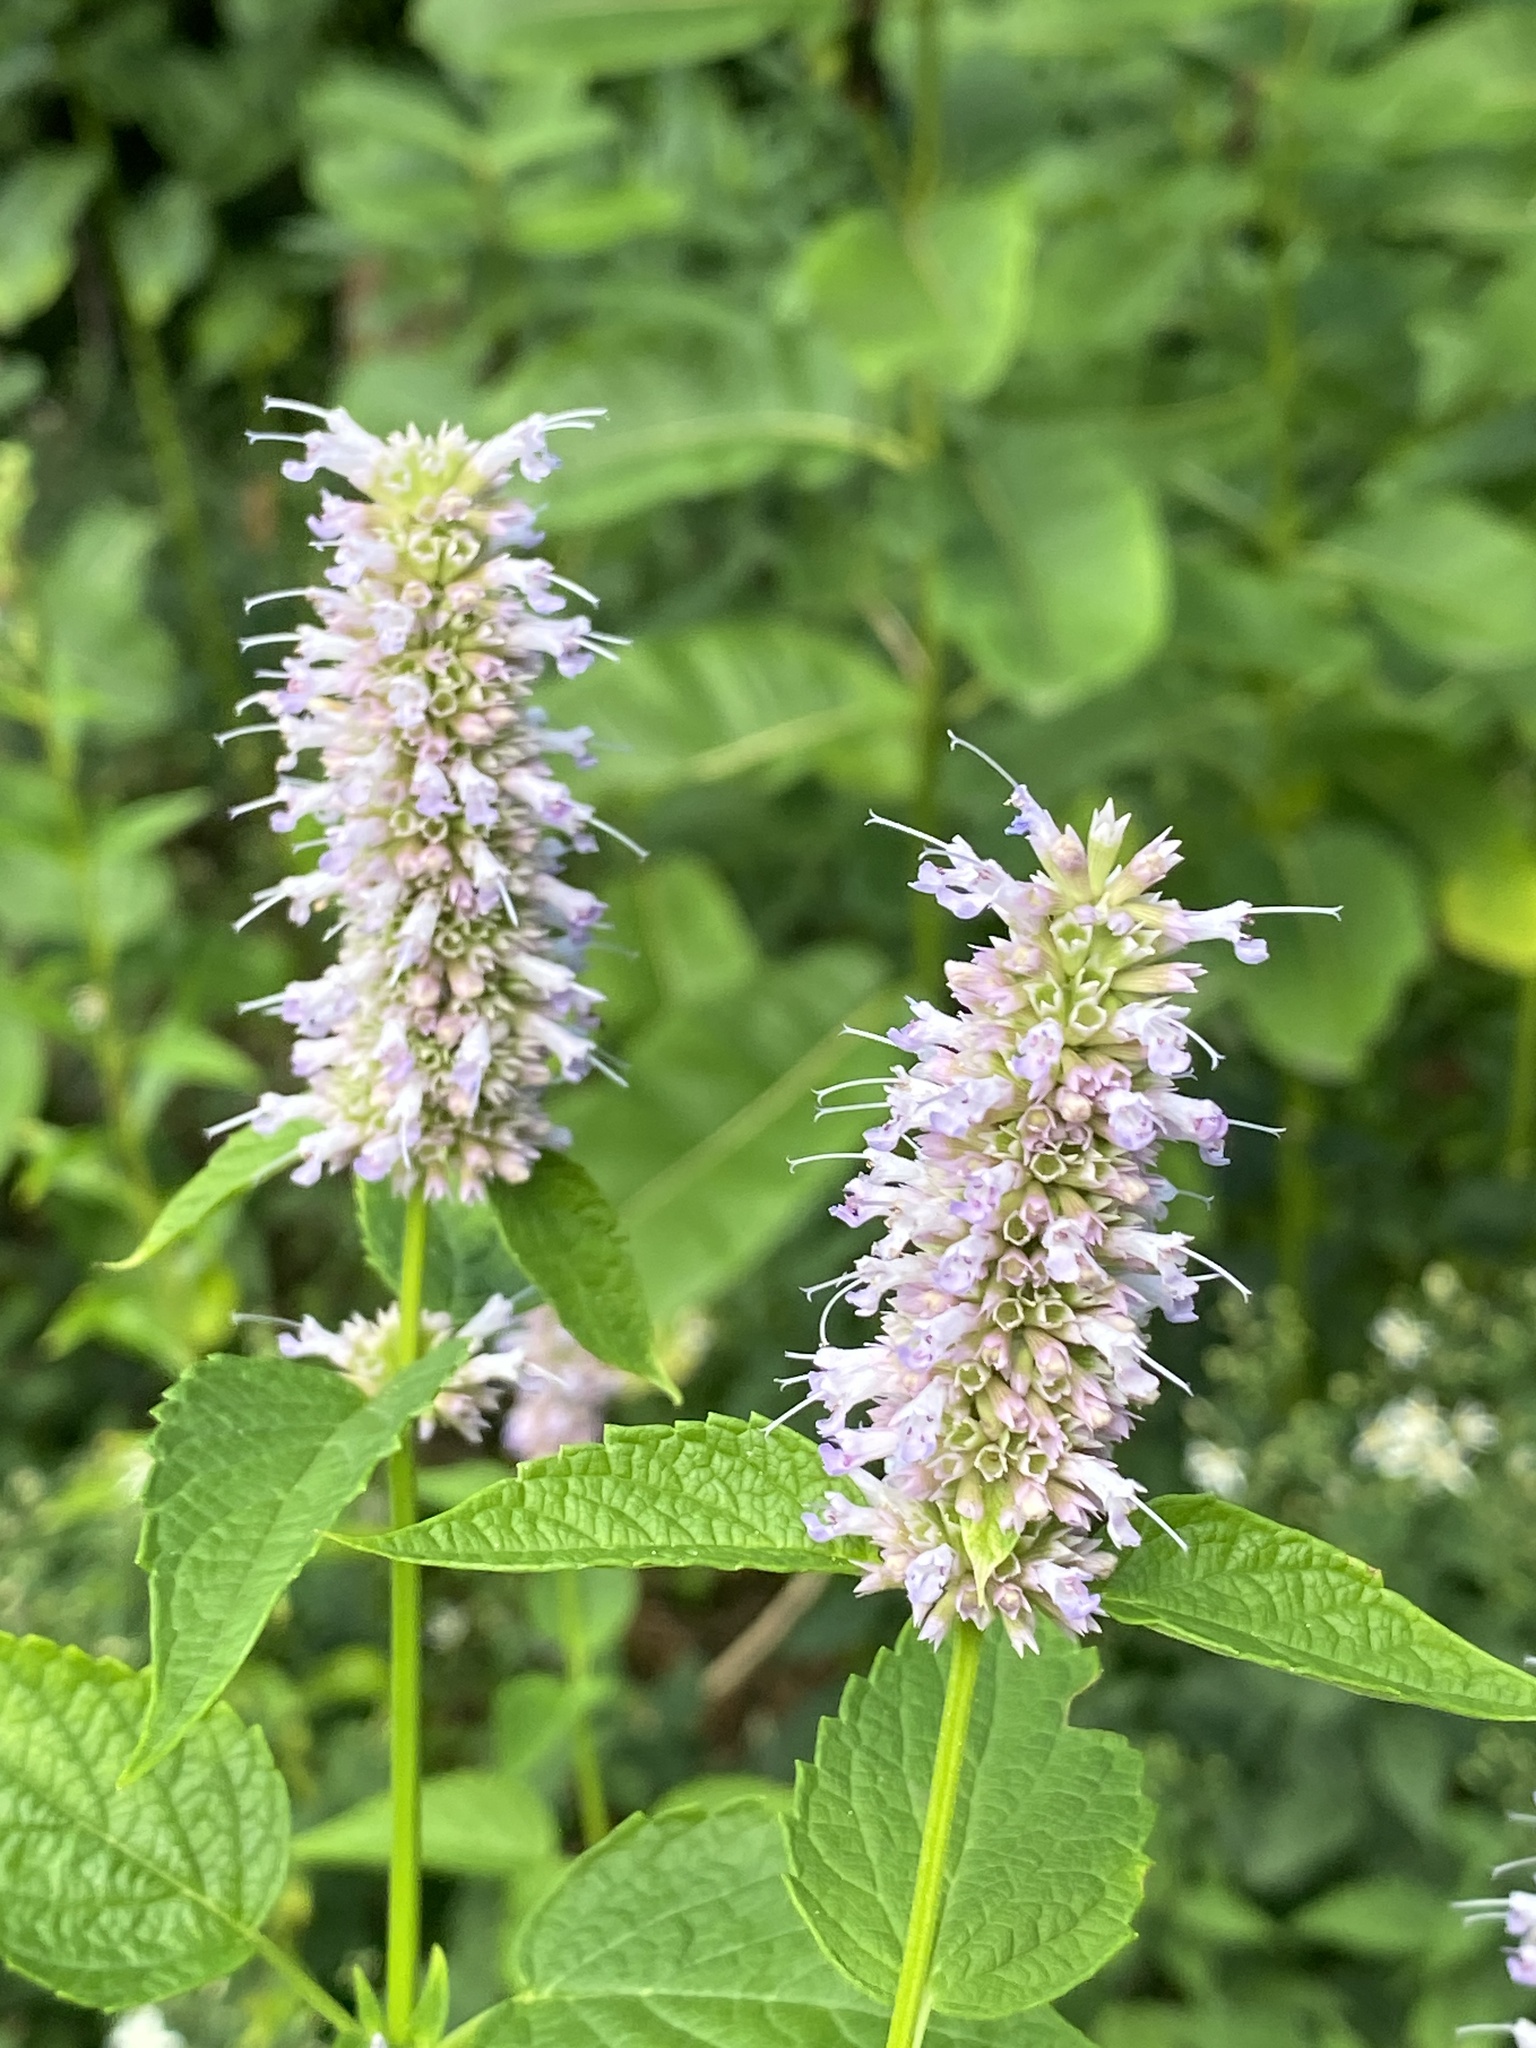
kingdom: Plantae
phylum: Tracheophyta
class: Magnoliopsida
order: Lamiales
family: Lamiaceae
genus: Agastache
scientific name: Agastache foeniculum
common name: Anise hyssop
